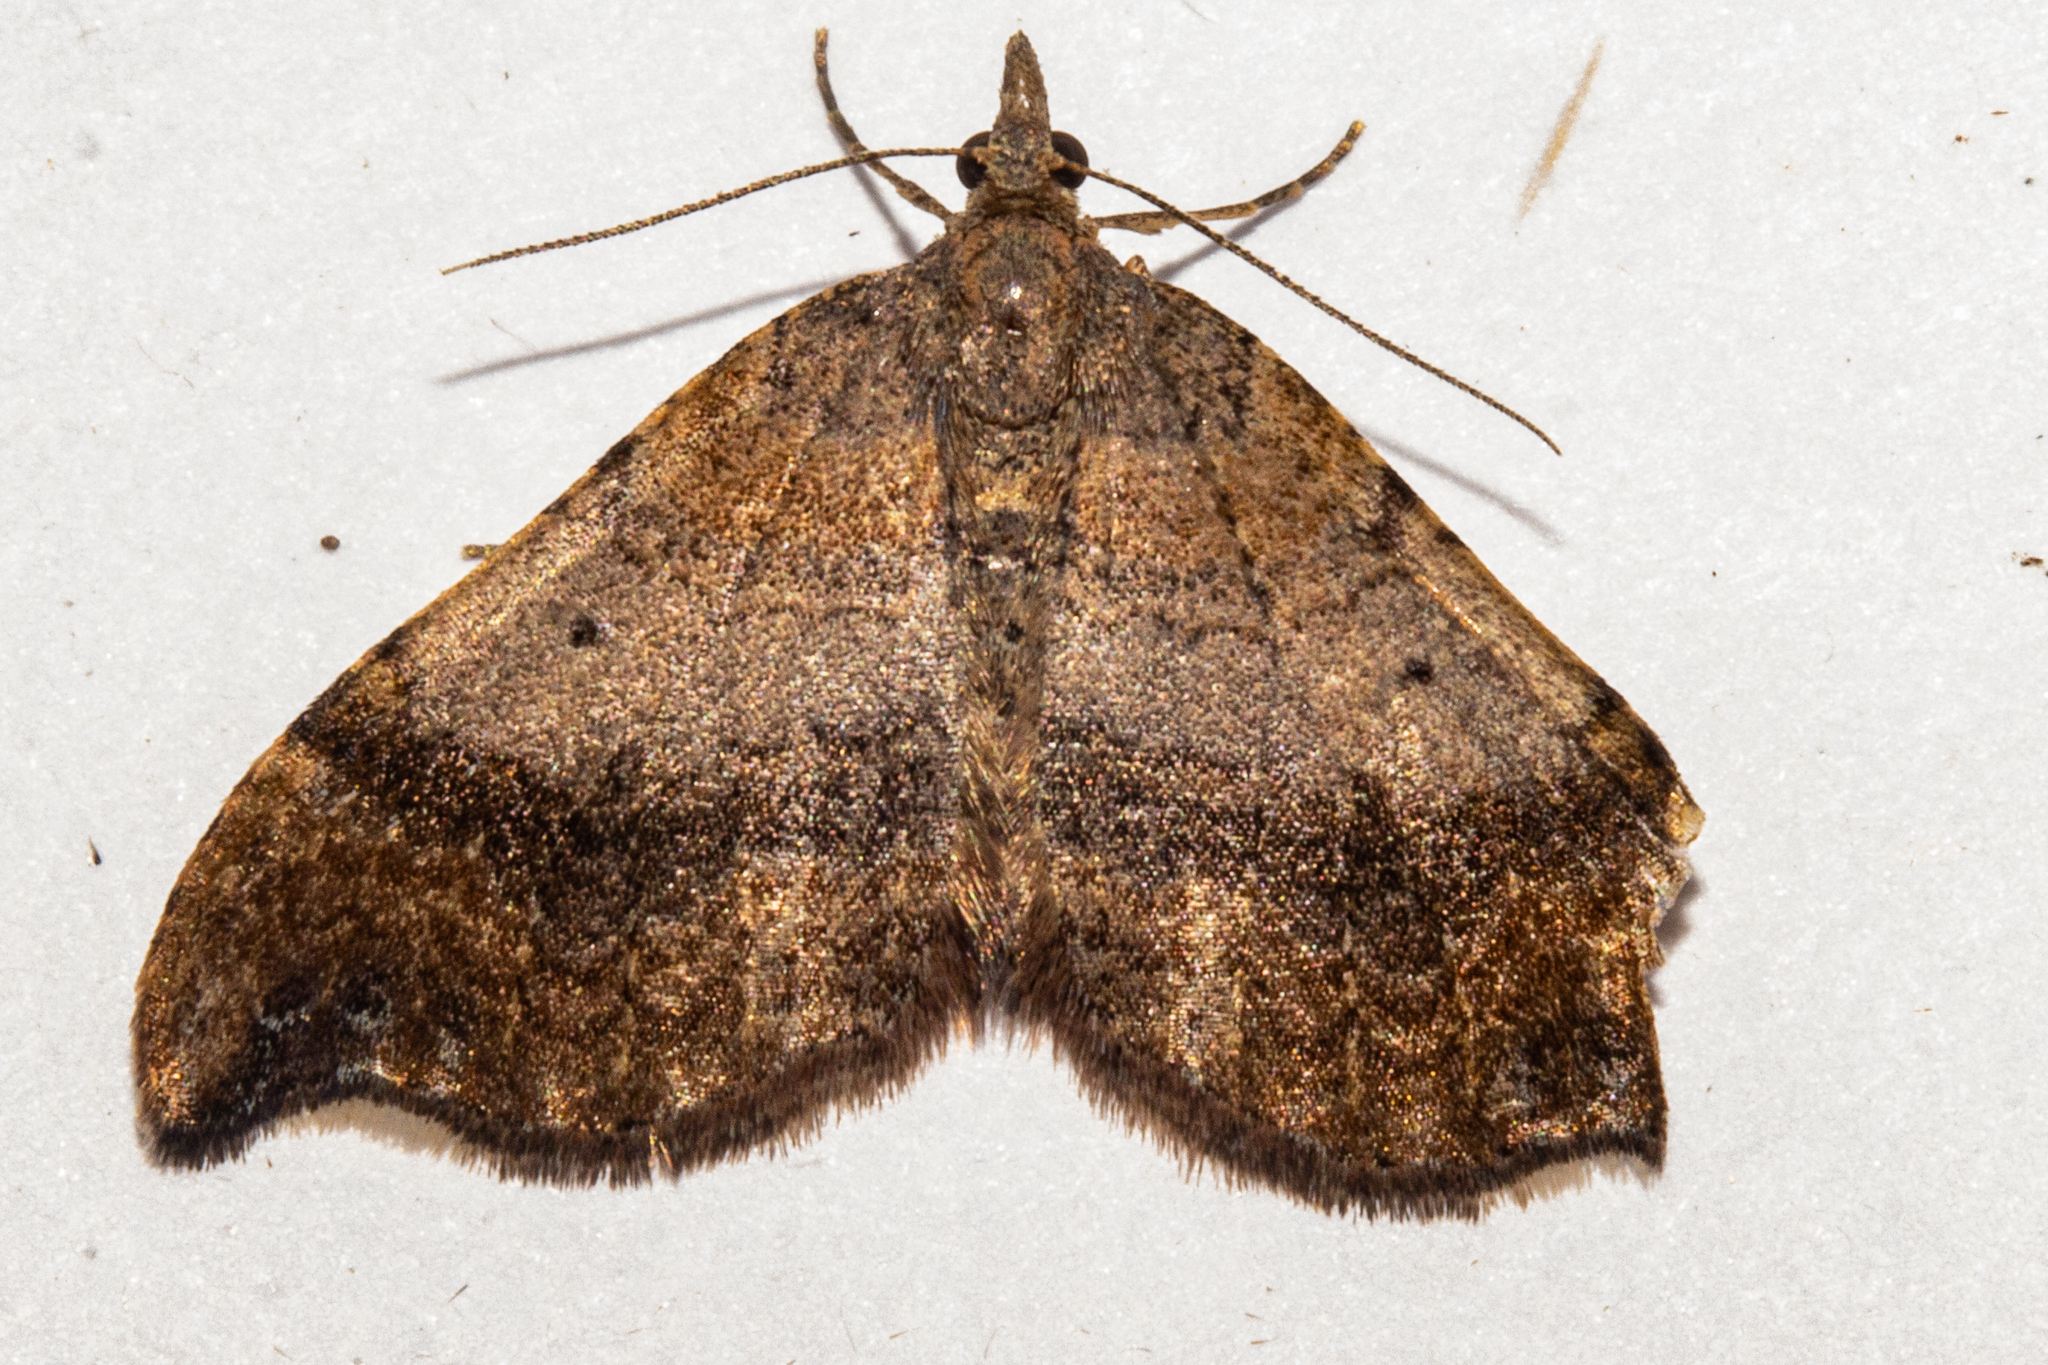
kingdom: Animalia
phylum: Arthropoda
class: Insecta
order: Lepidoptera
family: Geometridae
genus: Homodotis
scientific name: Homodotis megaspilata
